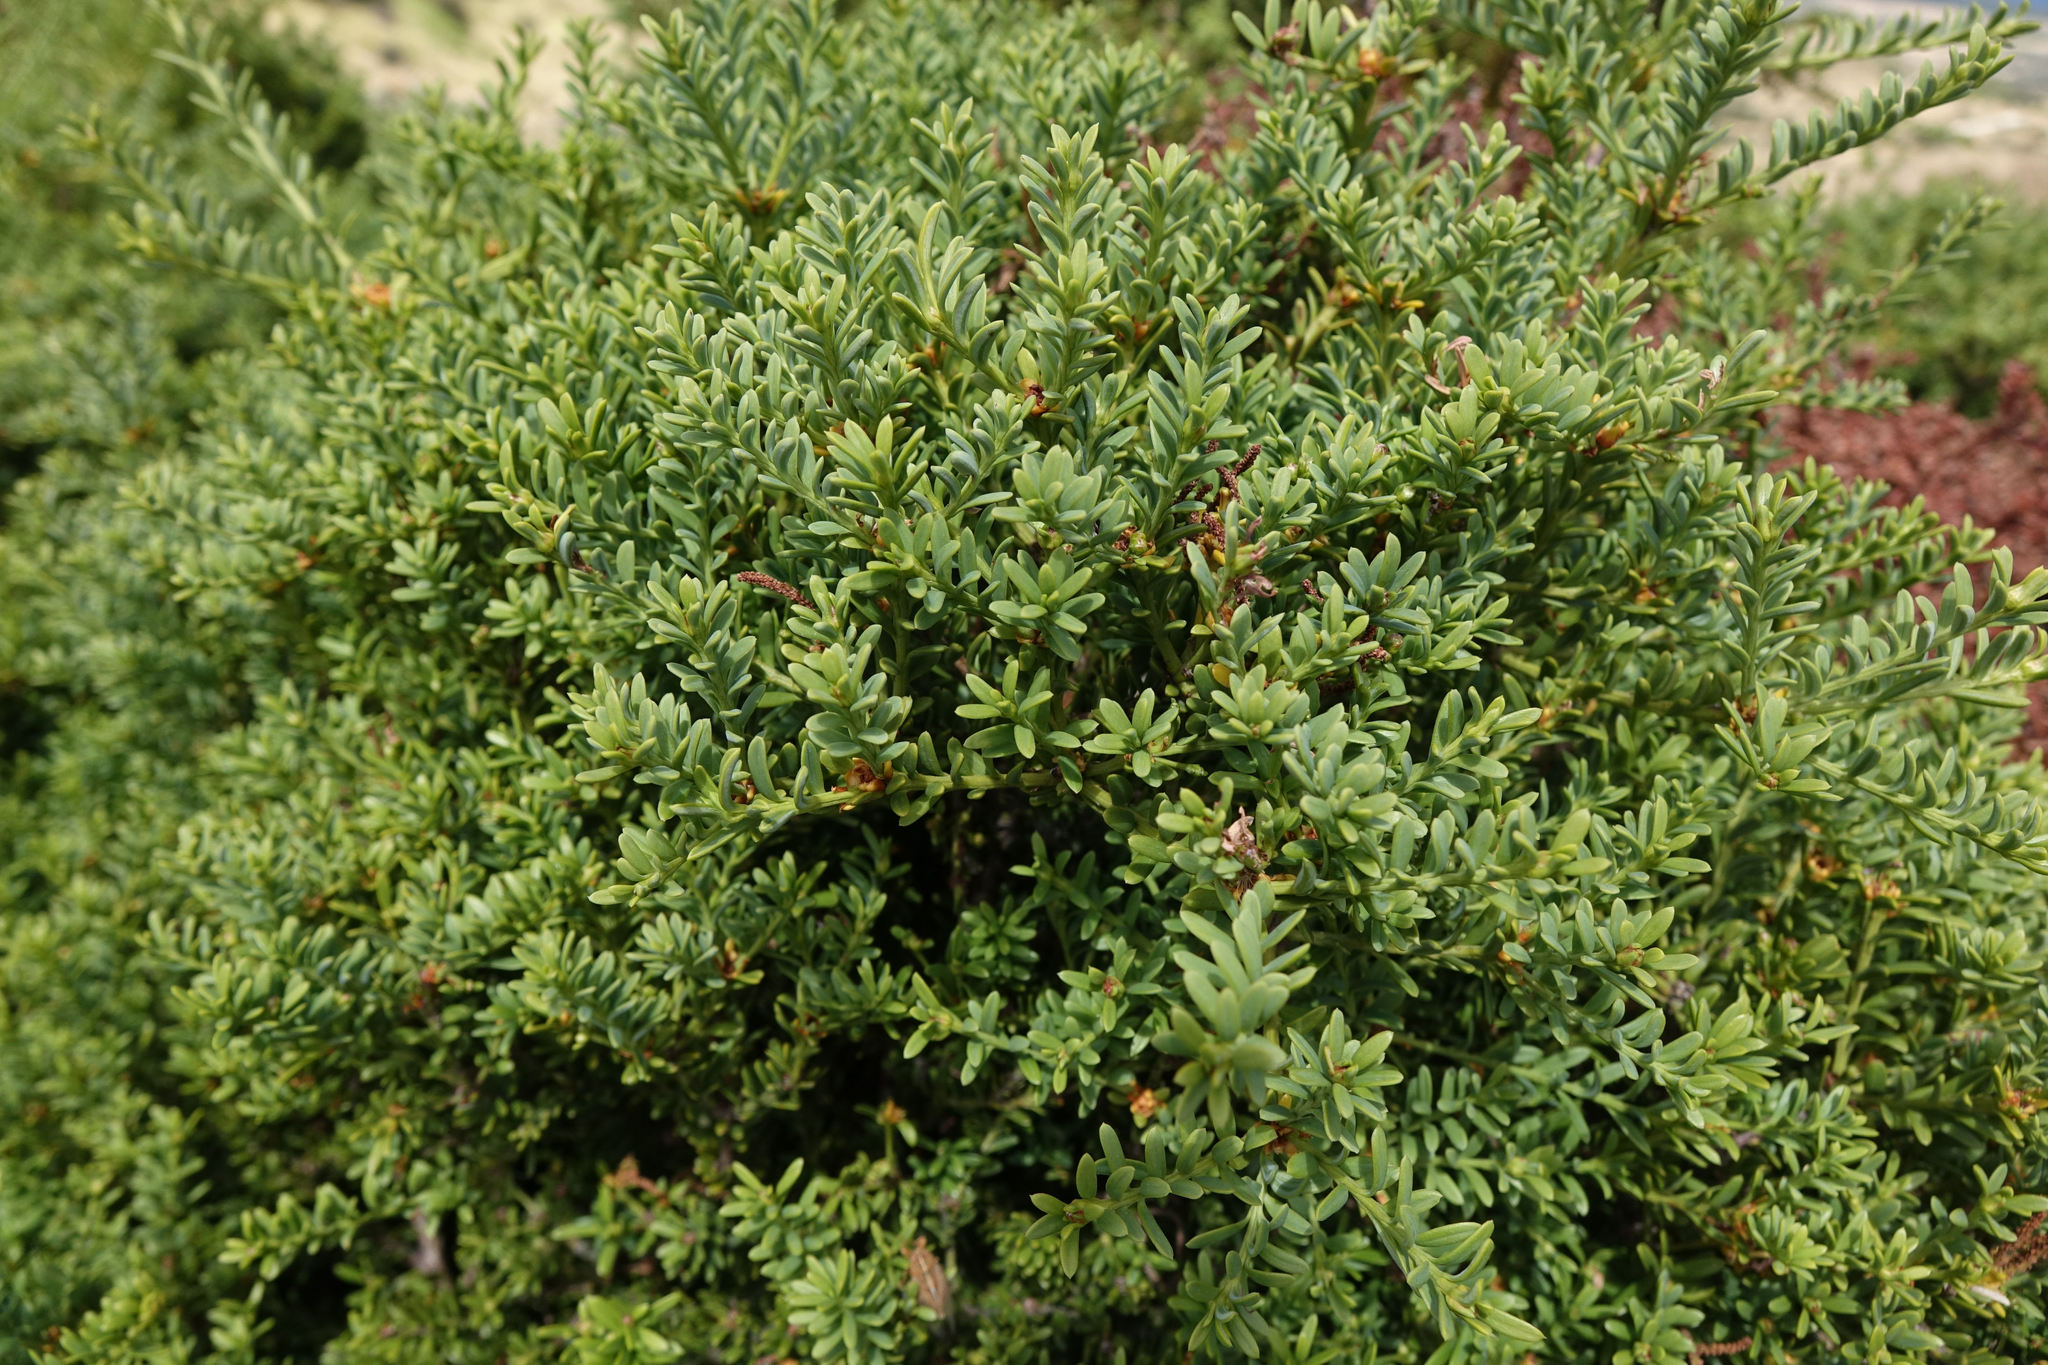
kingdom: Plantae
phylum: Tracheophyta
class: Pinopsida
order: Pinales
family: Podocarpaceae
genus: Podocarpus
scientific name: Podocarpus nivalis
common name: Alpine totara
